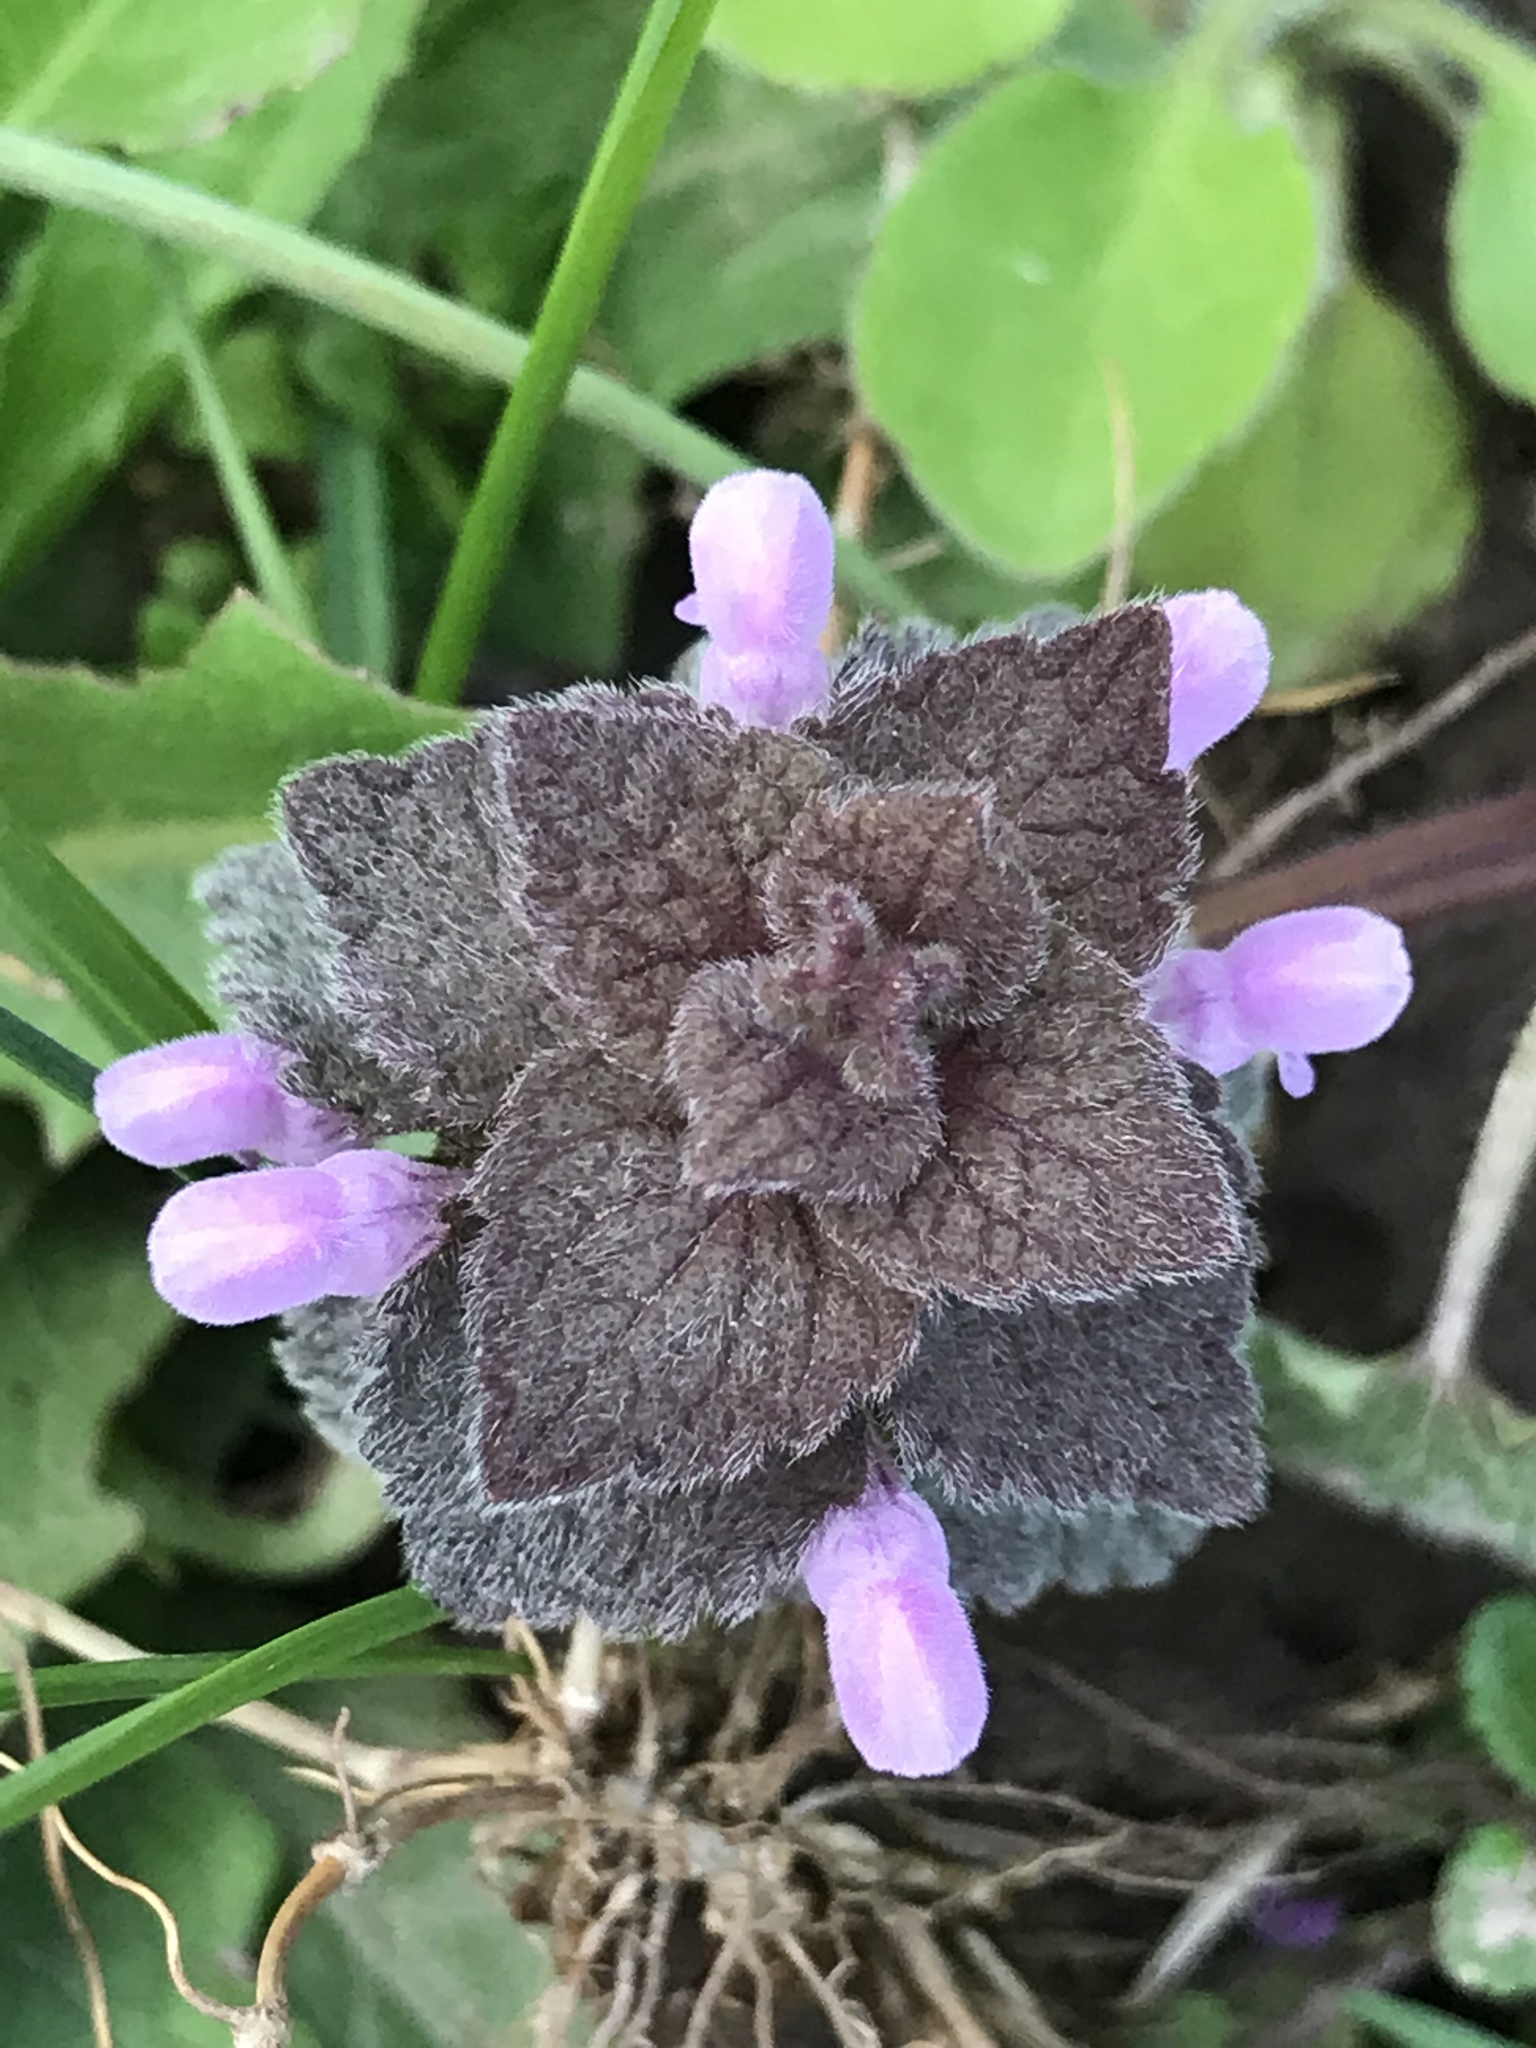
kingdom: Plantae
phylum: Tracheophyta
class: Magnoliopsida
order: Lamiales
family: Lamiaceae
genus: Lamium
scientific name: Lamium purpureum
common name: Red dead-nettle
